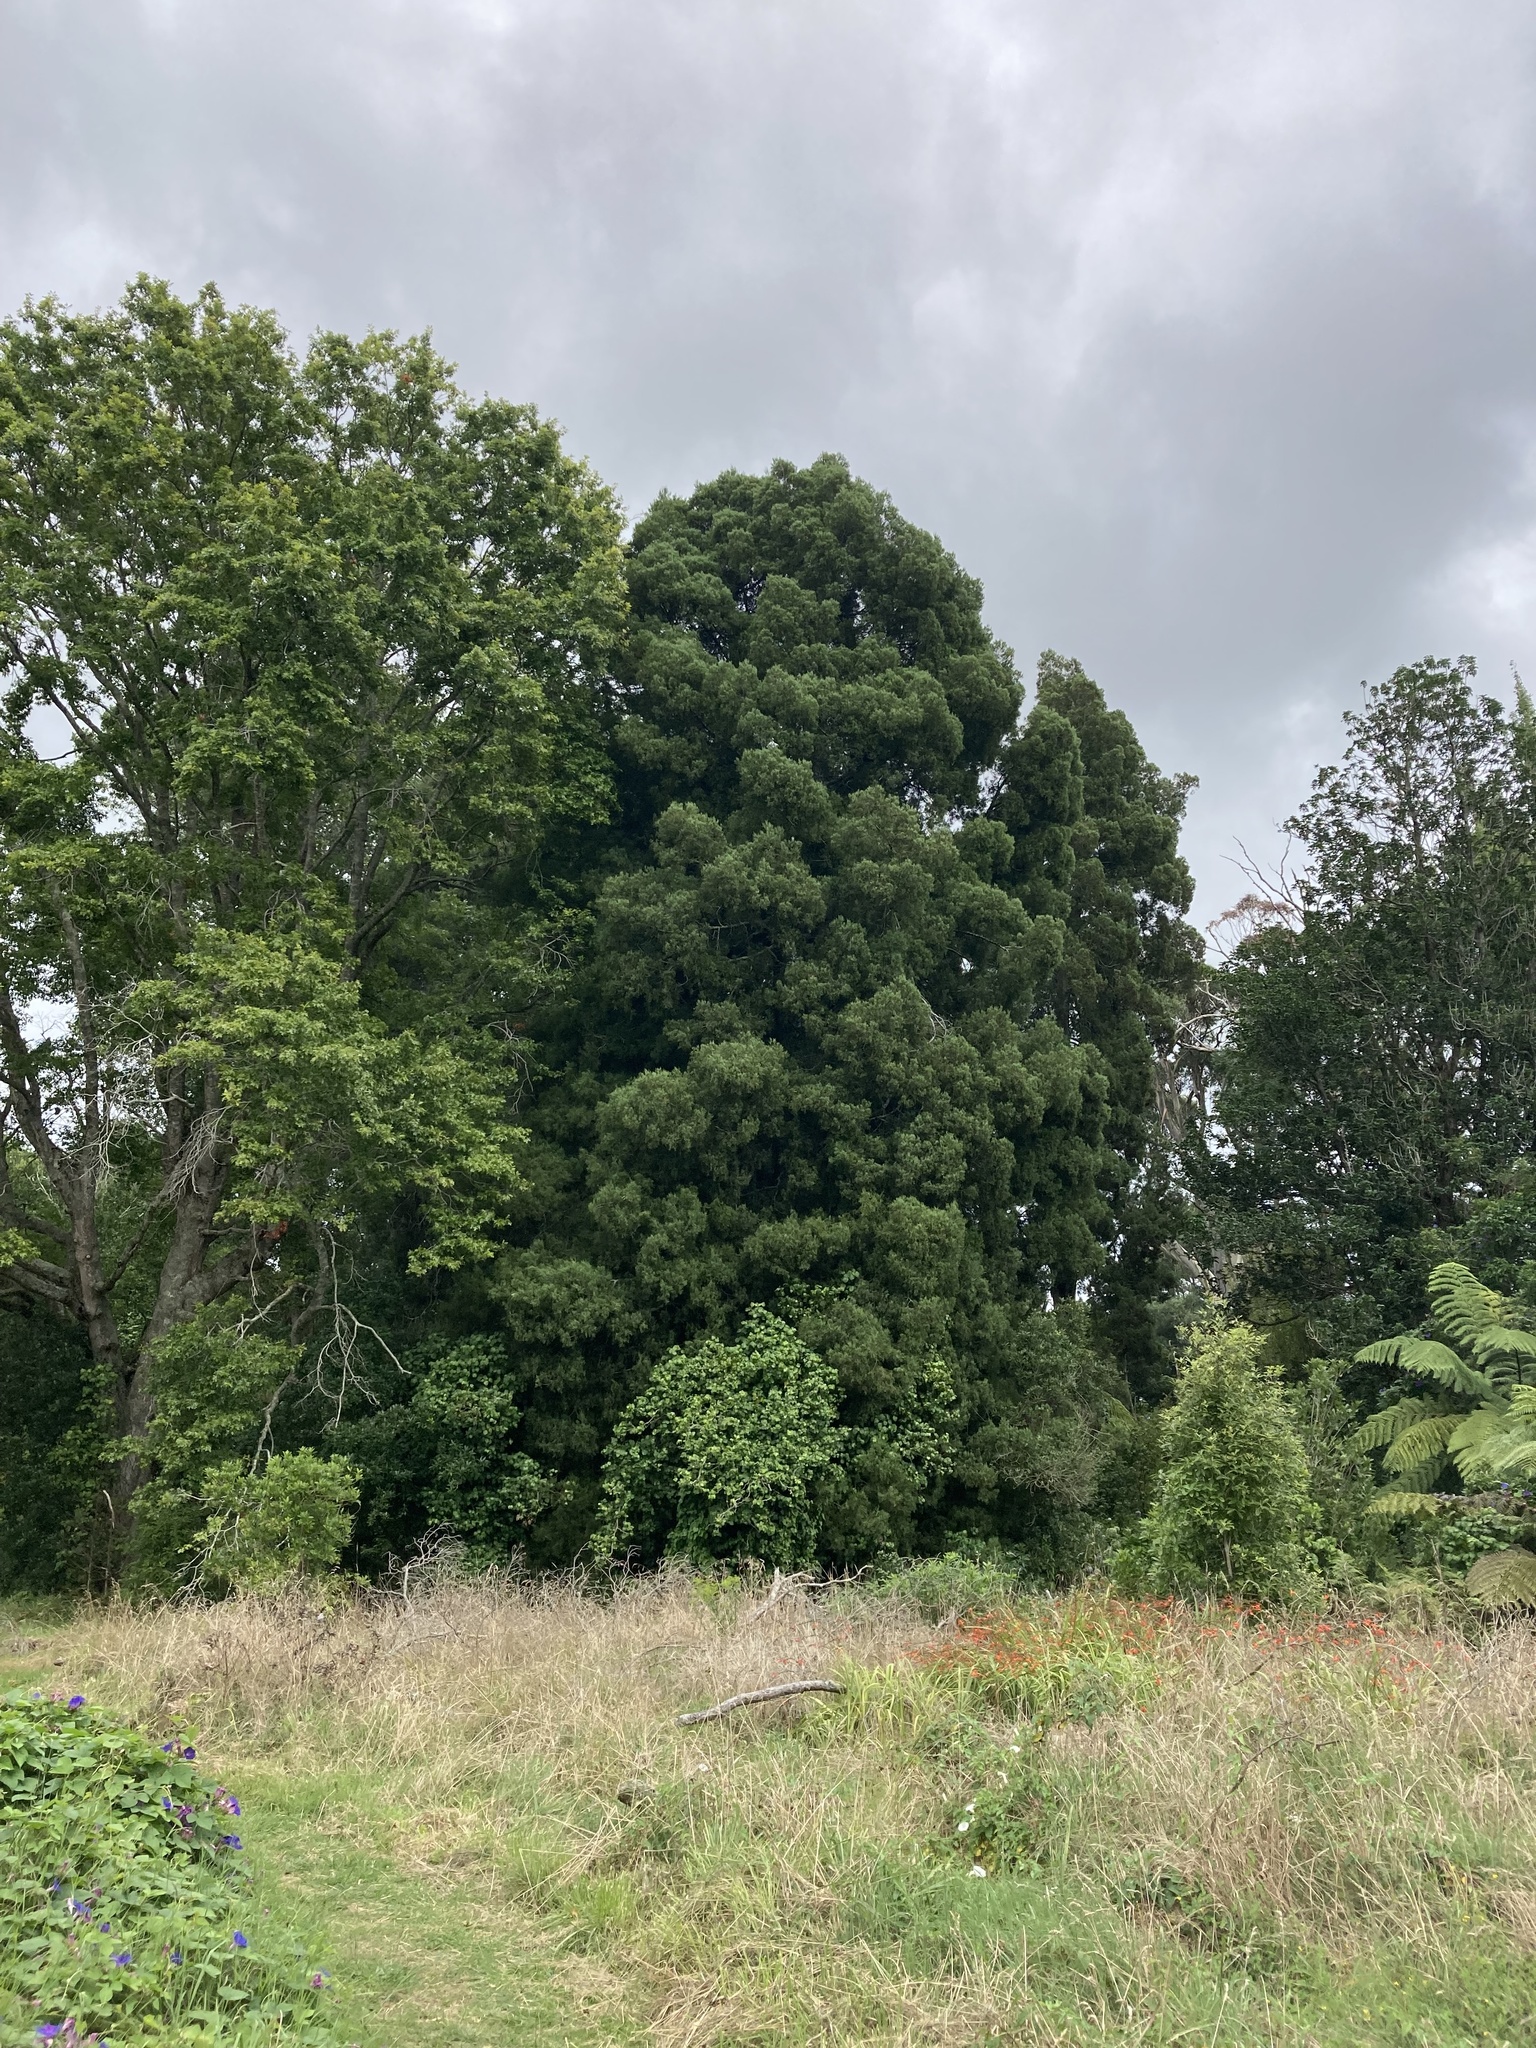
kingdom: Plantae
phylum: Tracheophyta
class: Pinopsida
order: Pinales
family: Podocarpaceae
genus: Dacrycarpus
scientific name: Dacrycarpus dacrydioides
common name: White pine
